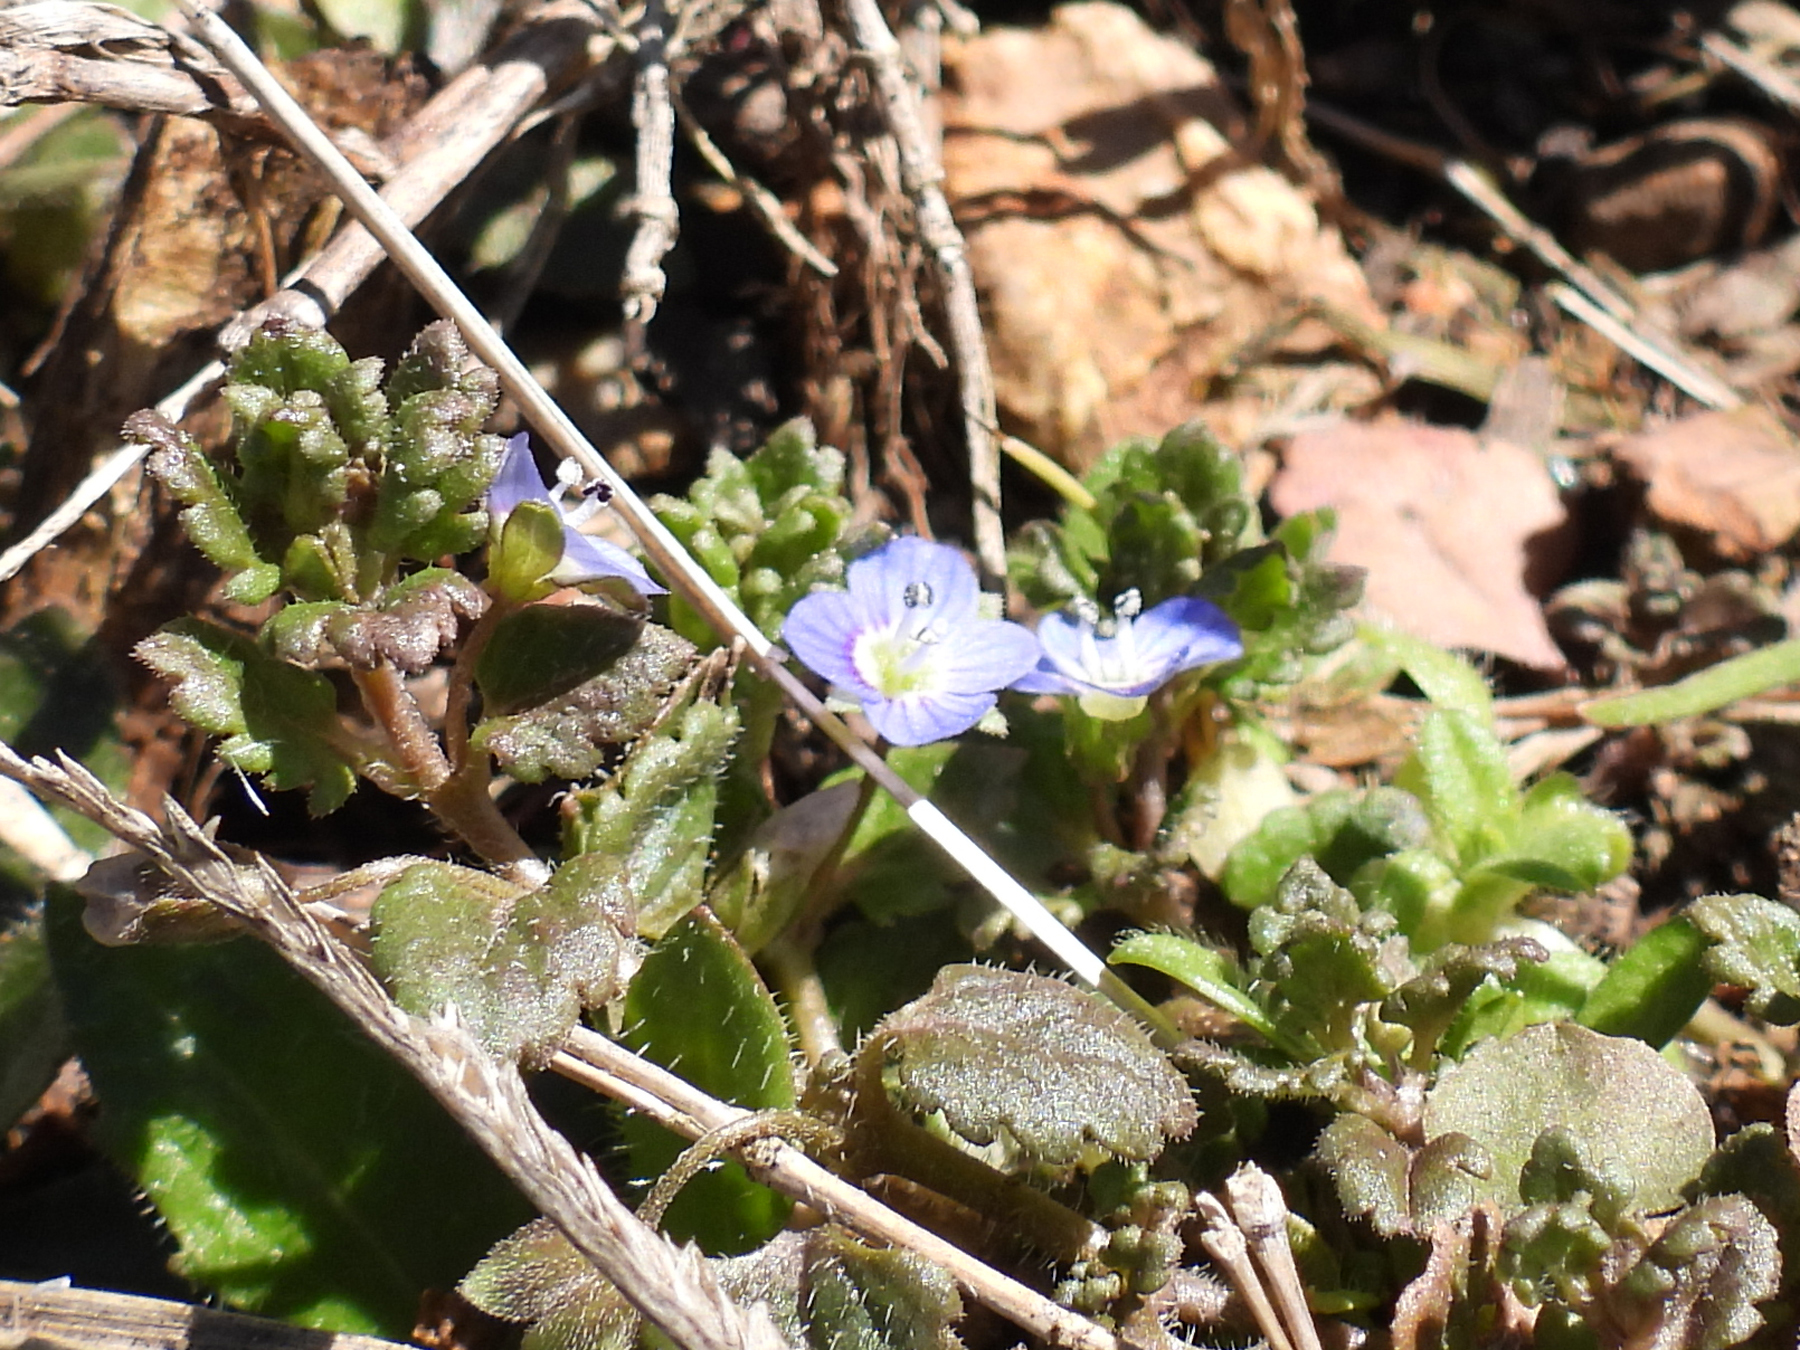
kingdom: Plantae
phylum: Tracheophyta
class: Magnoliopsida
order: Lamiales
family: Plantaginaceae
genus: Veronica
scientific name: Veronica persica
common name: Common field-speedwell
